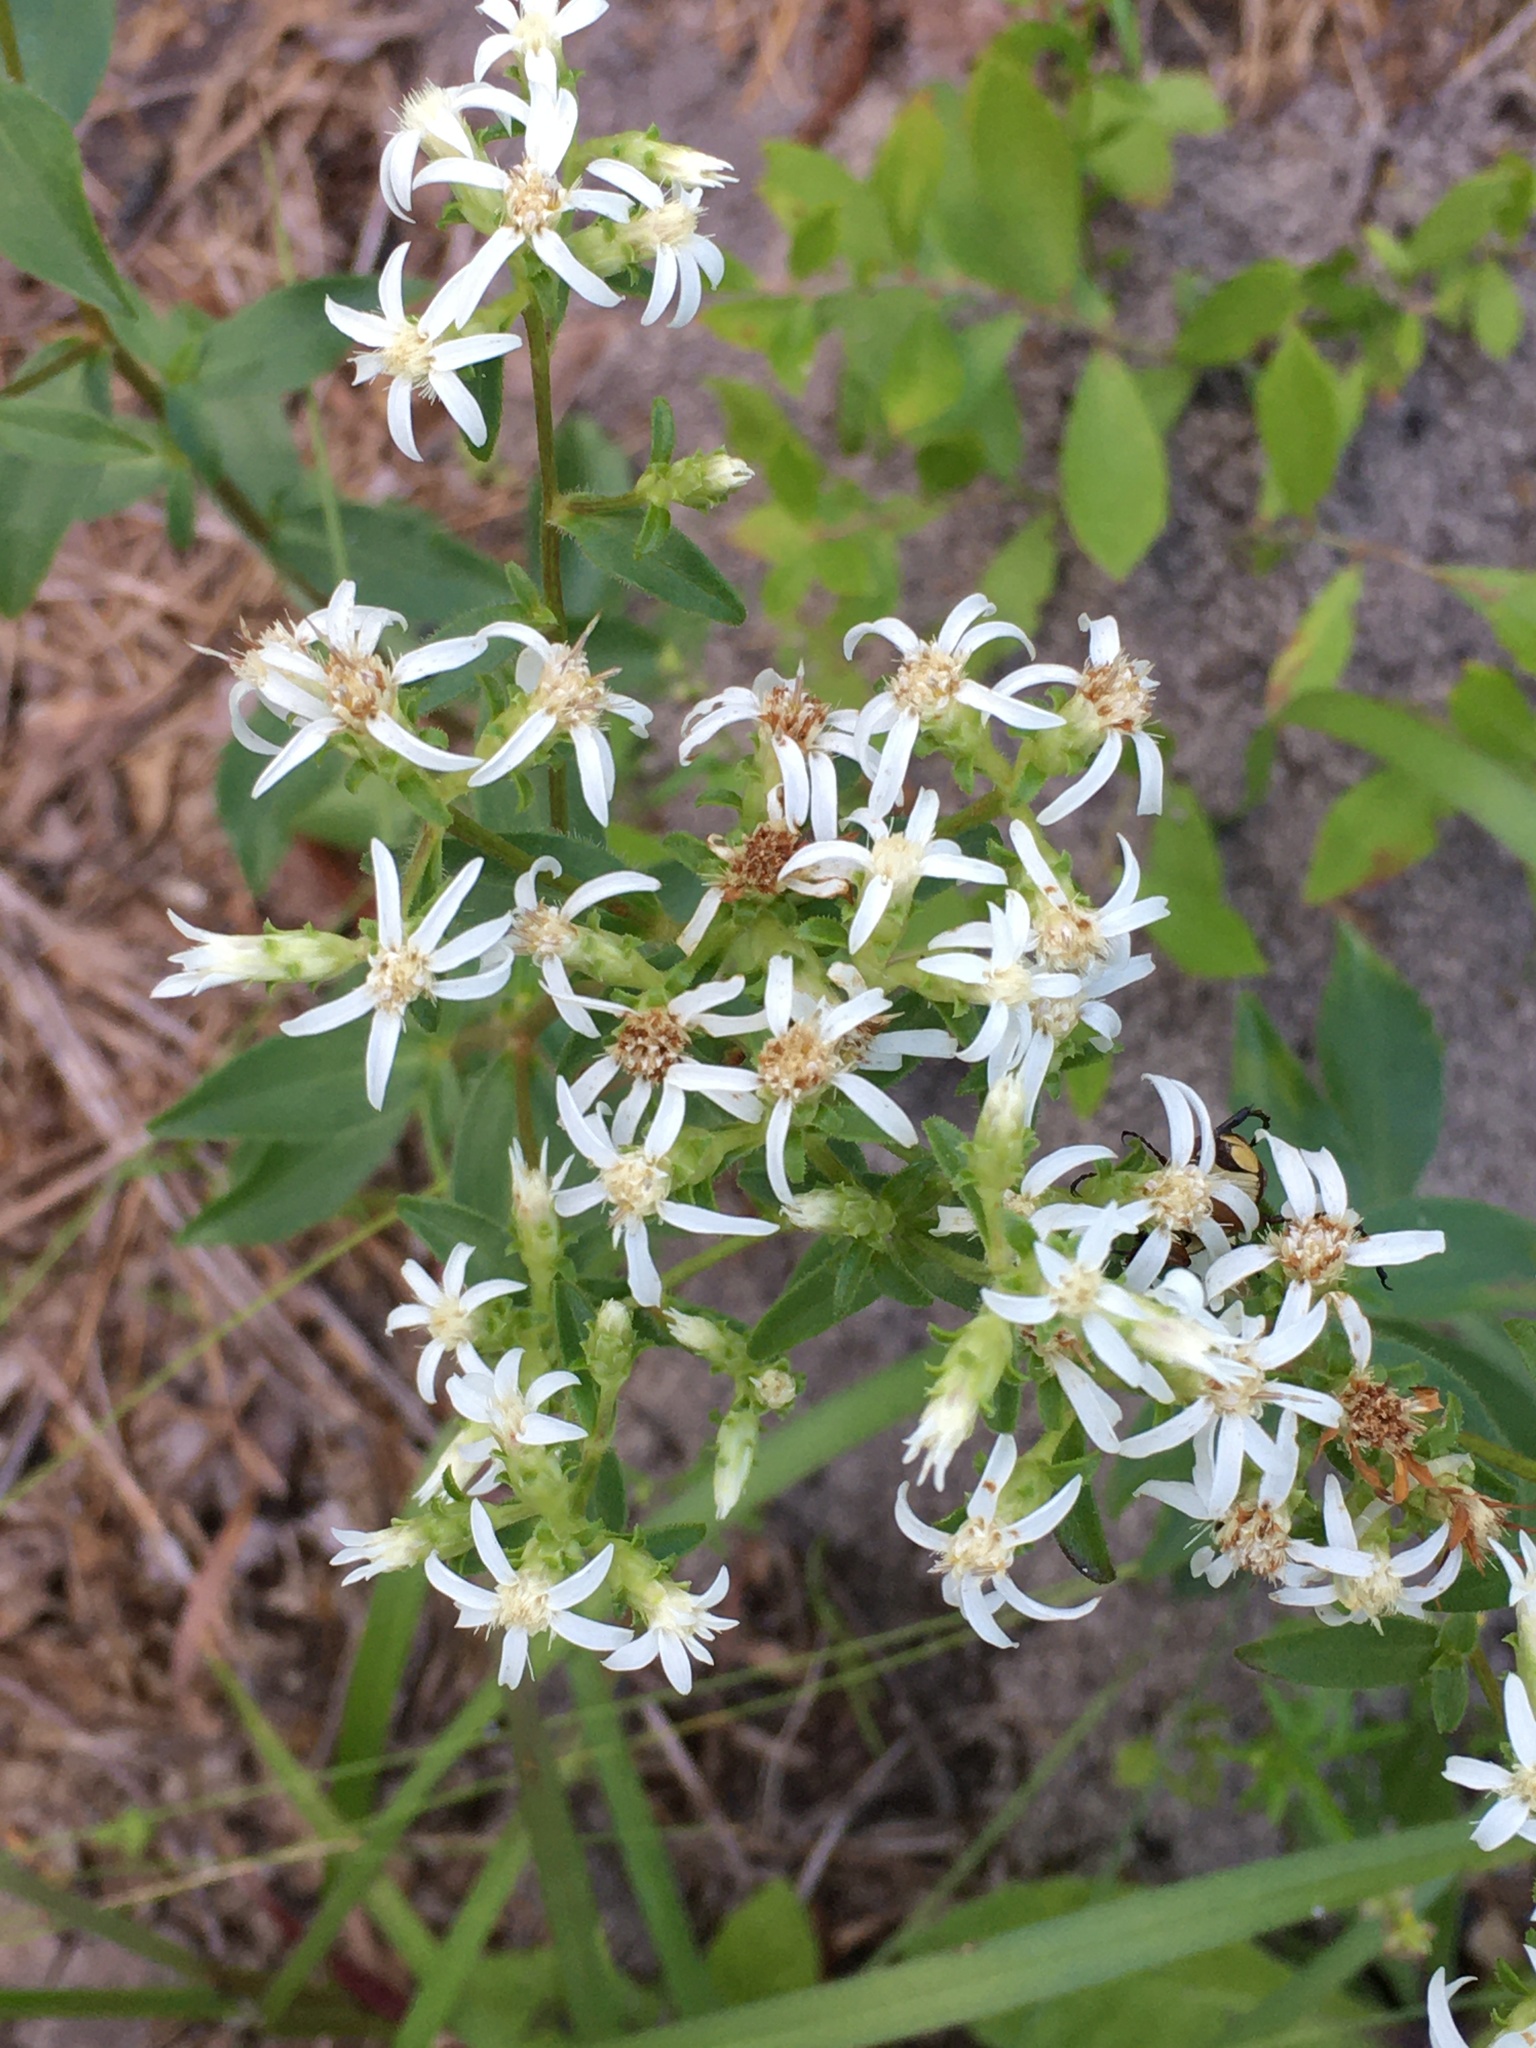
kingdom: Plantae
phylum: Tracheophyta
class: Magnoliopsida
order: Asterales
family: Asteraceae
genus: Sericocarpus
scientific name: Sericocarpus asteroides
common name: Toothed white-top aster
